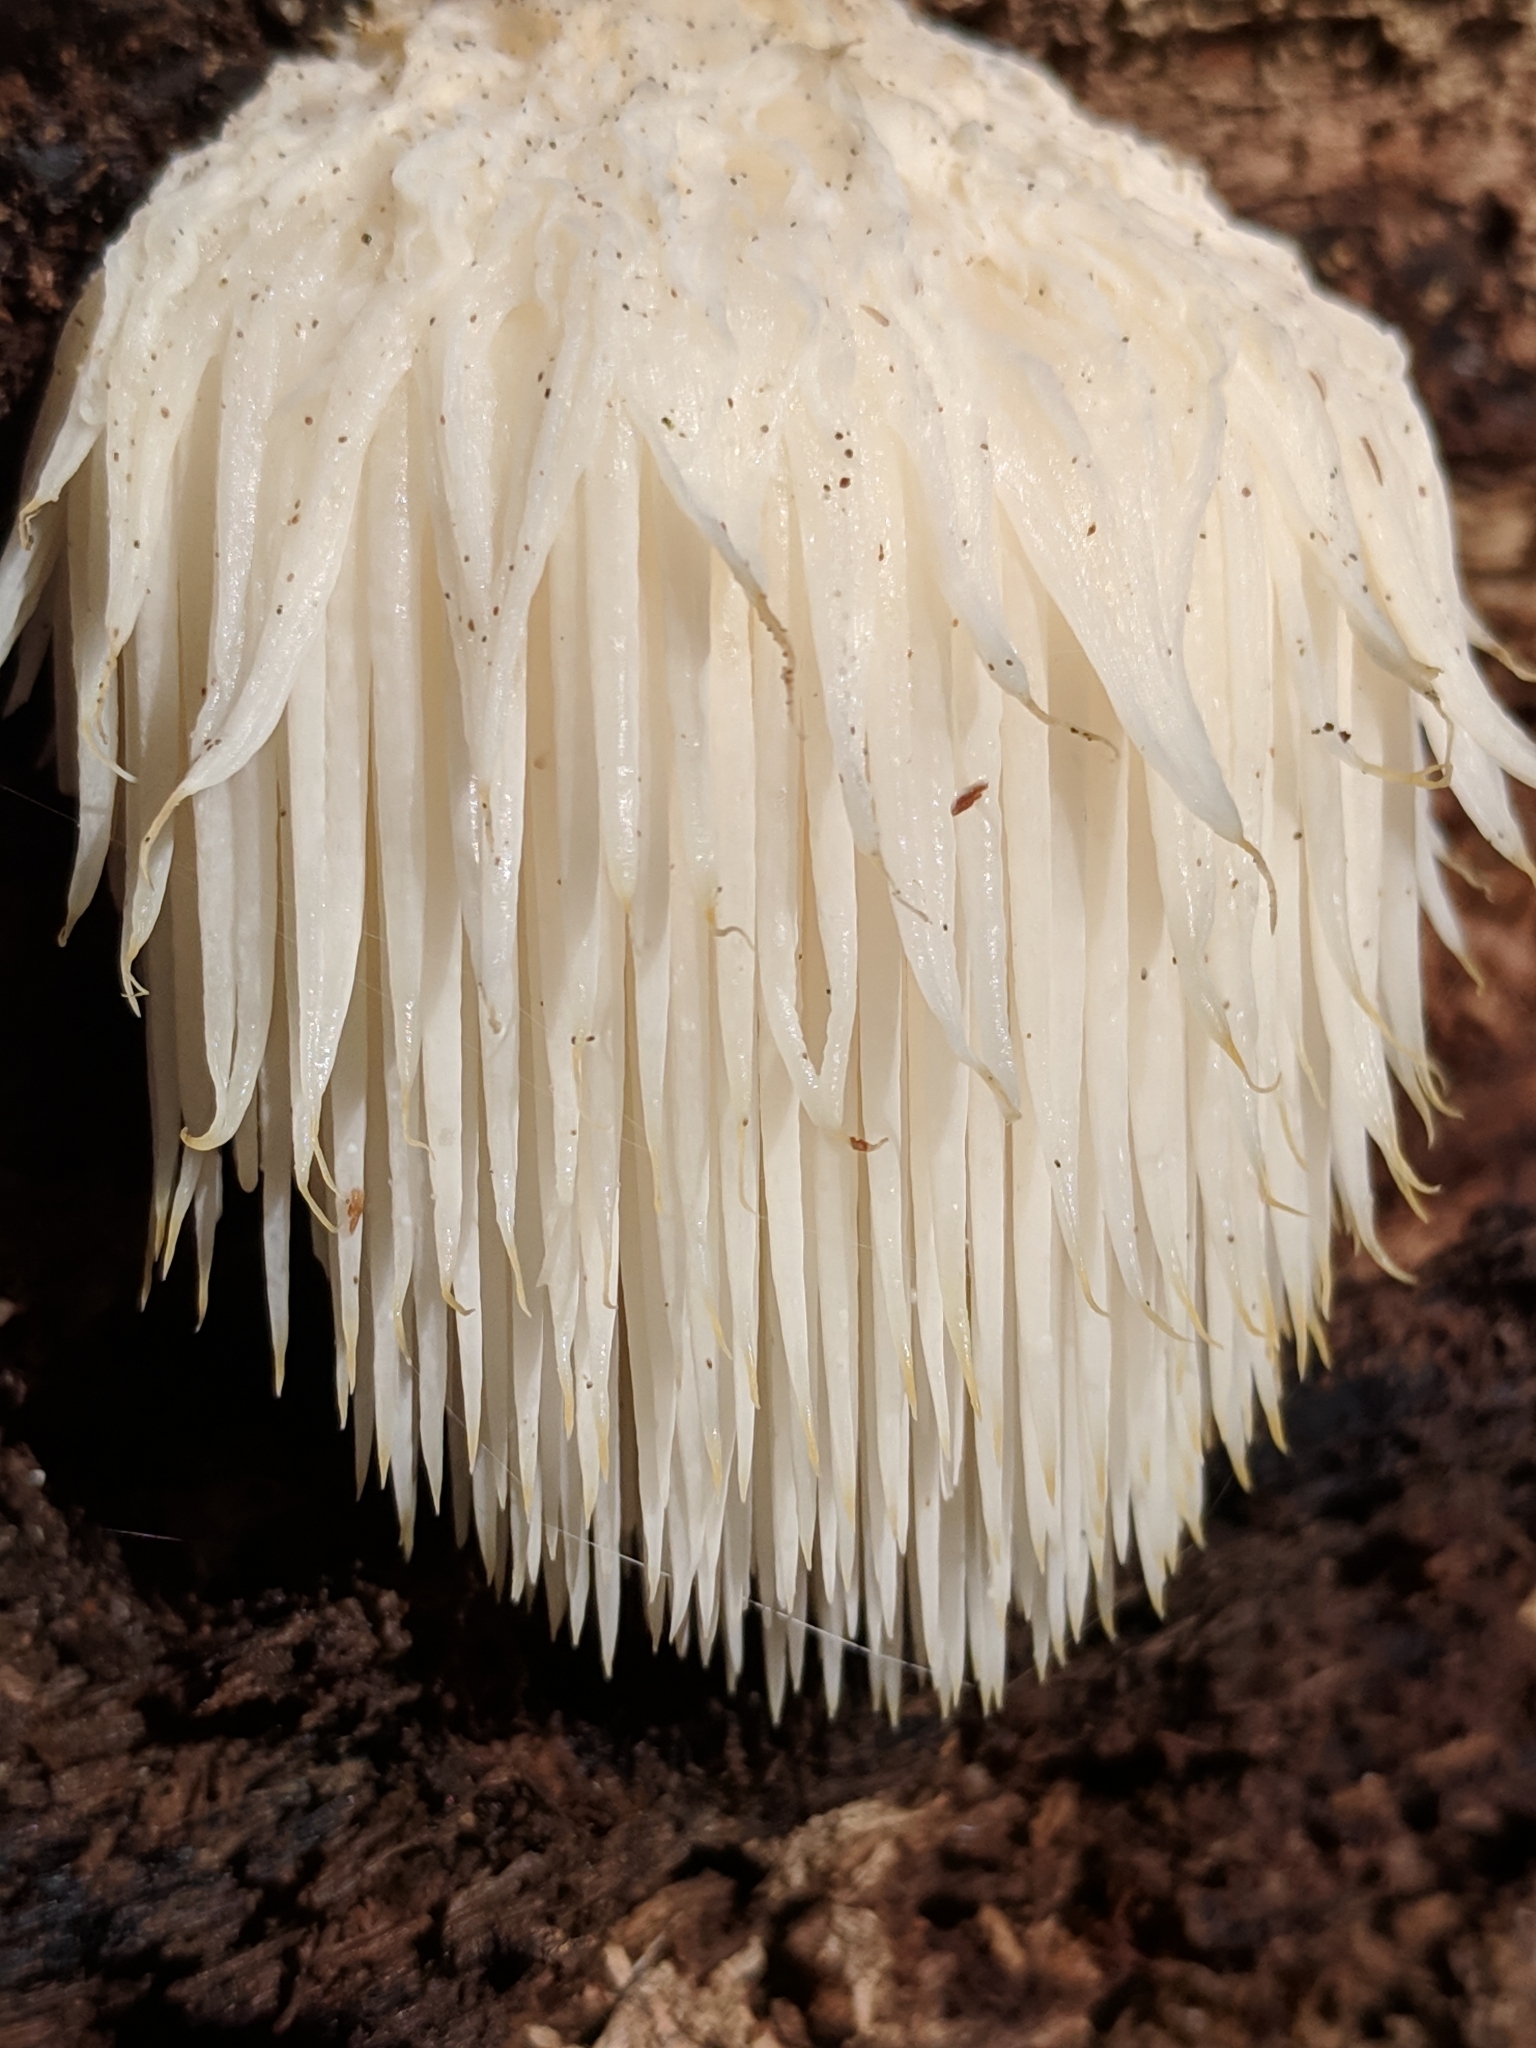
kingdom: Fungi
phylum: Basidiomycota
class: Agaricomycetes
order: Russulales
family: Hericiaceae
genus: Hericium
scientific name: Hericium erinaceus
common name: Bearded tooth
